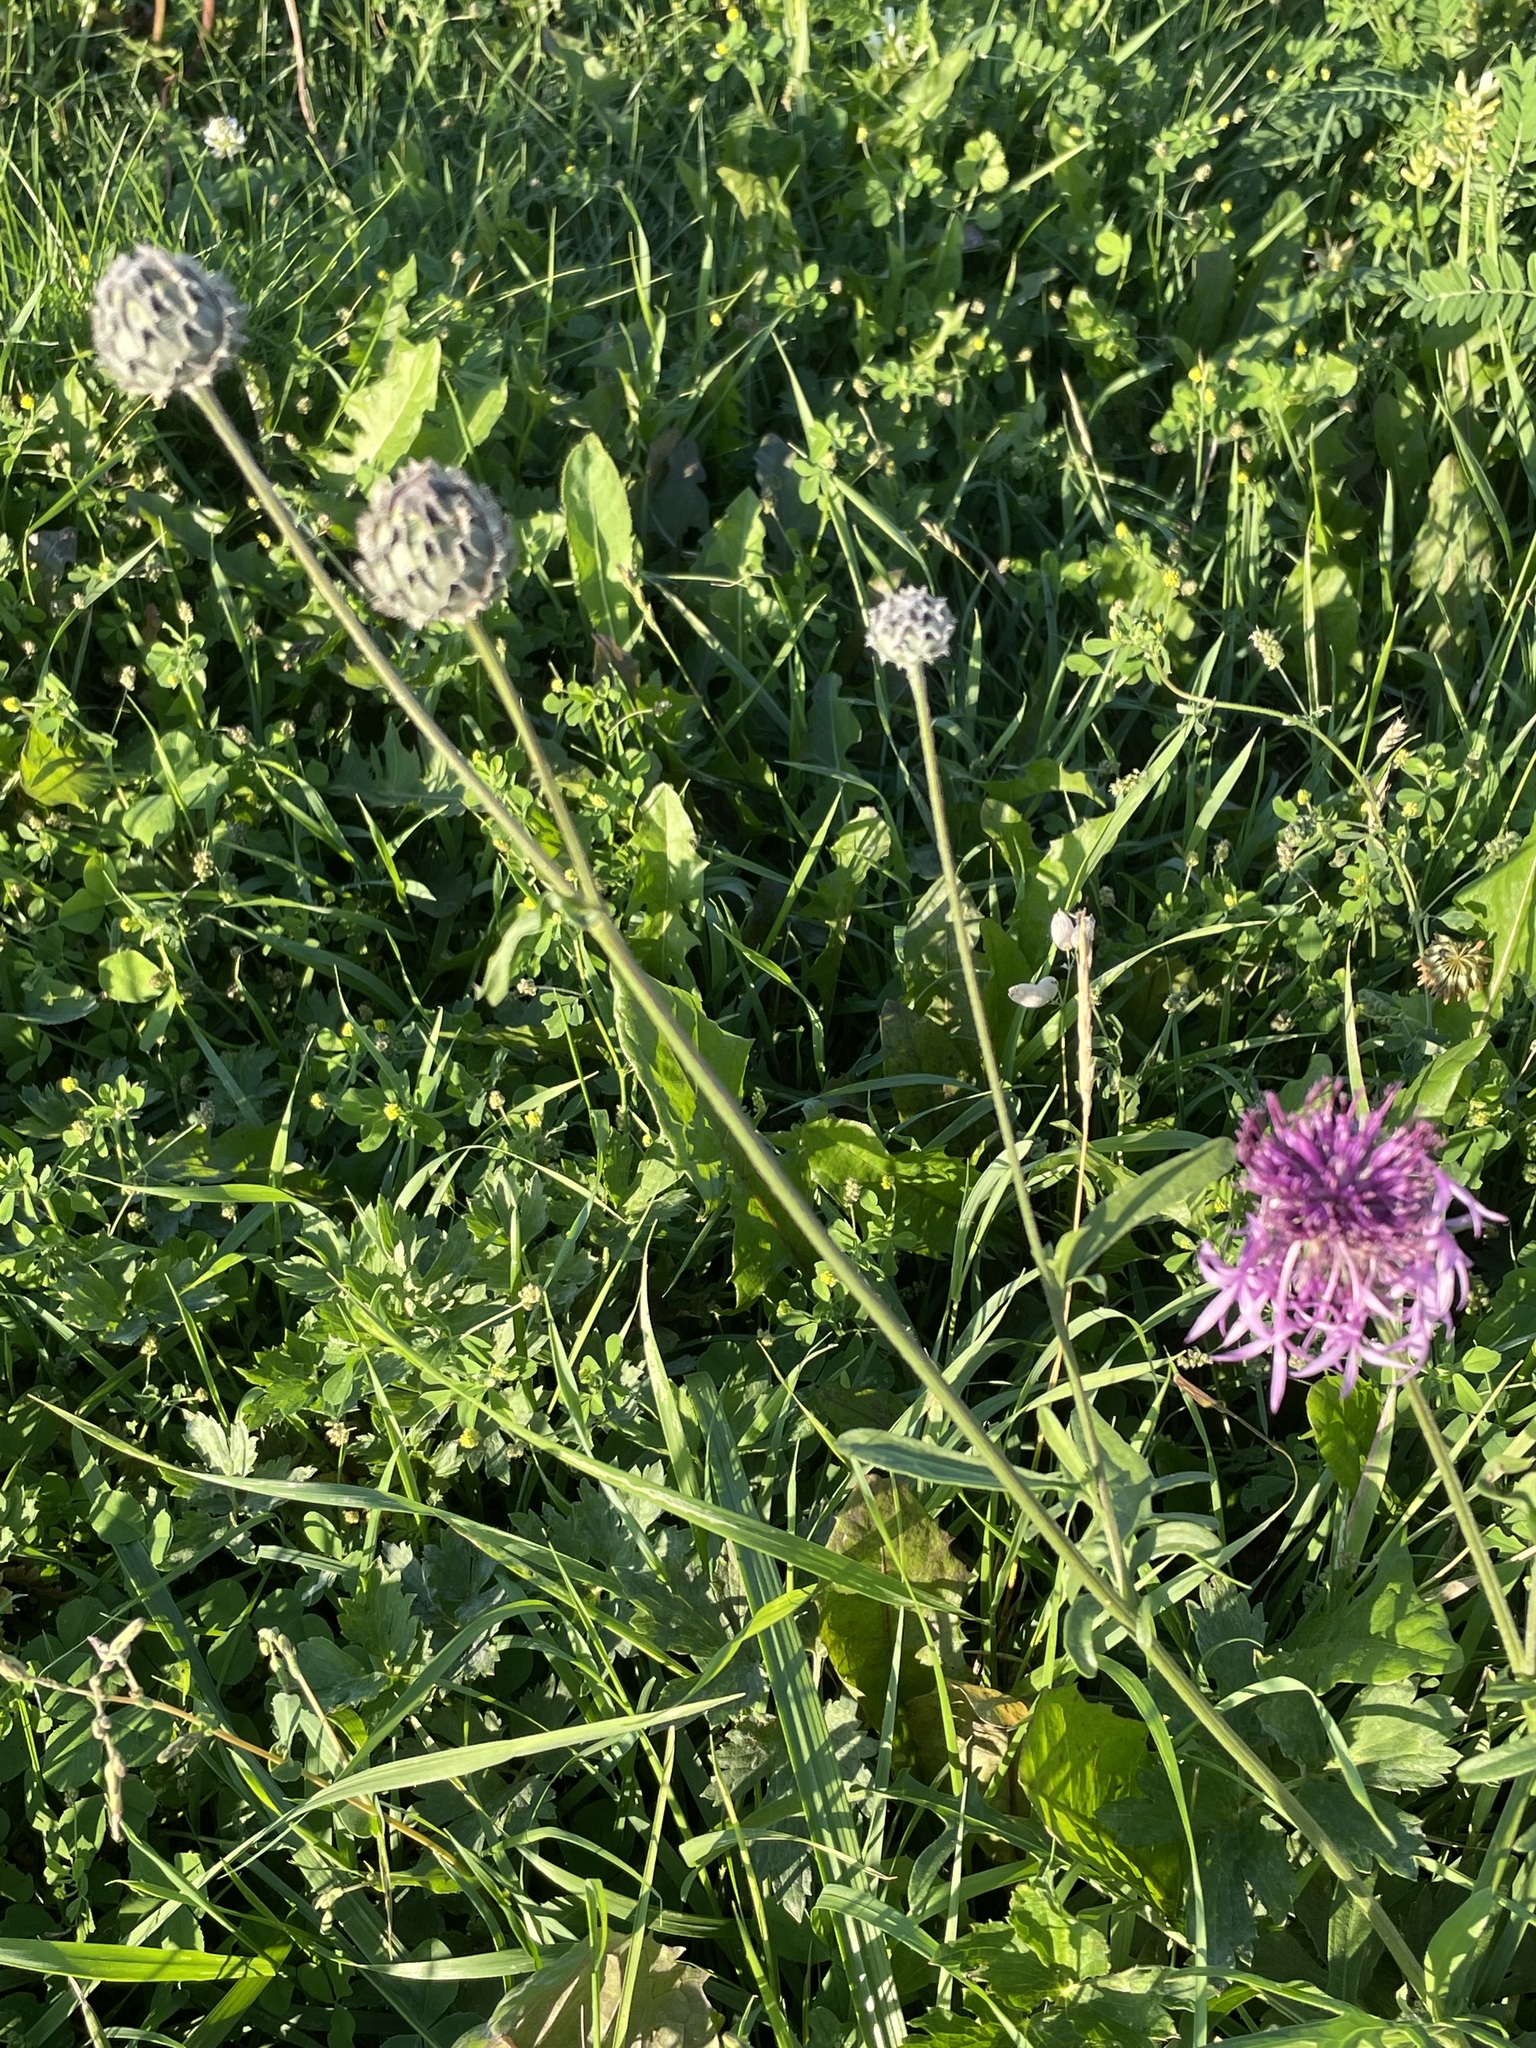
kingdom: Plantae
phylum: Tracheophyta
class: Magnoliopsida
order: Asterales
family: Asteraceae
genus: Centaurea
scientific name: Centaurea scabiosa
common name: Greater knapweed
